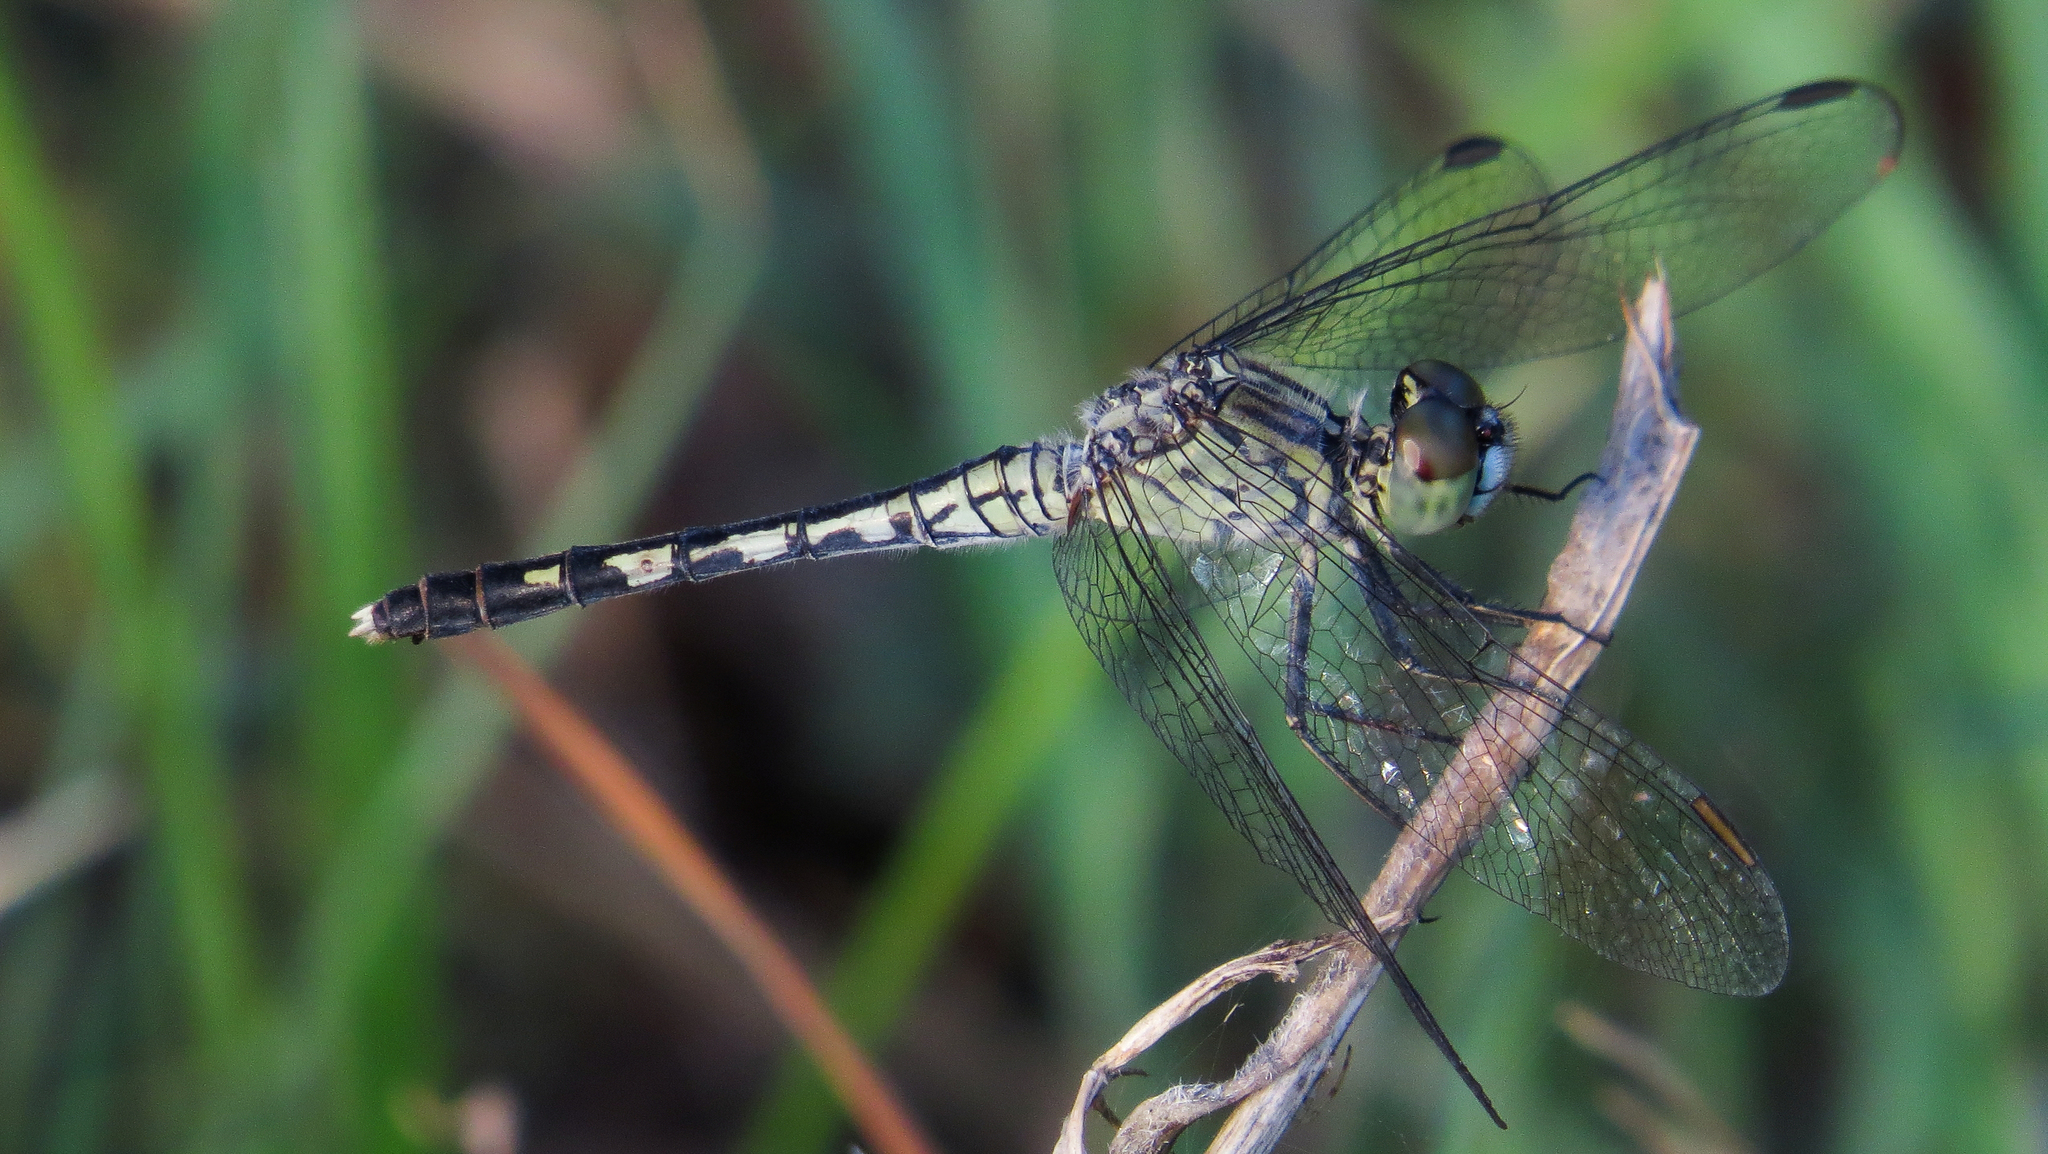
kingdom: Animalia
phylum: Arthropoda
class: Insecta
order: Odonata
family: Libellulidae
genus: Diplacodes
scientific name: Diplacodes trivialis
